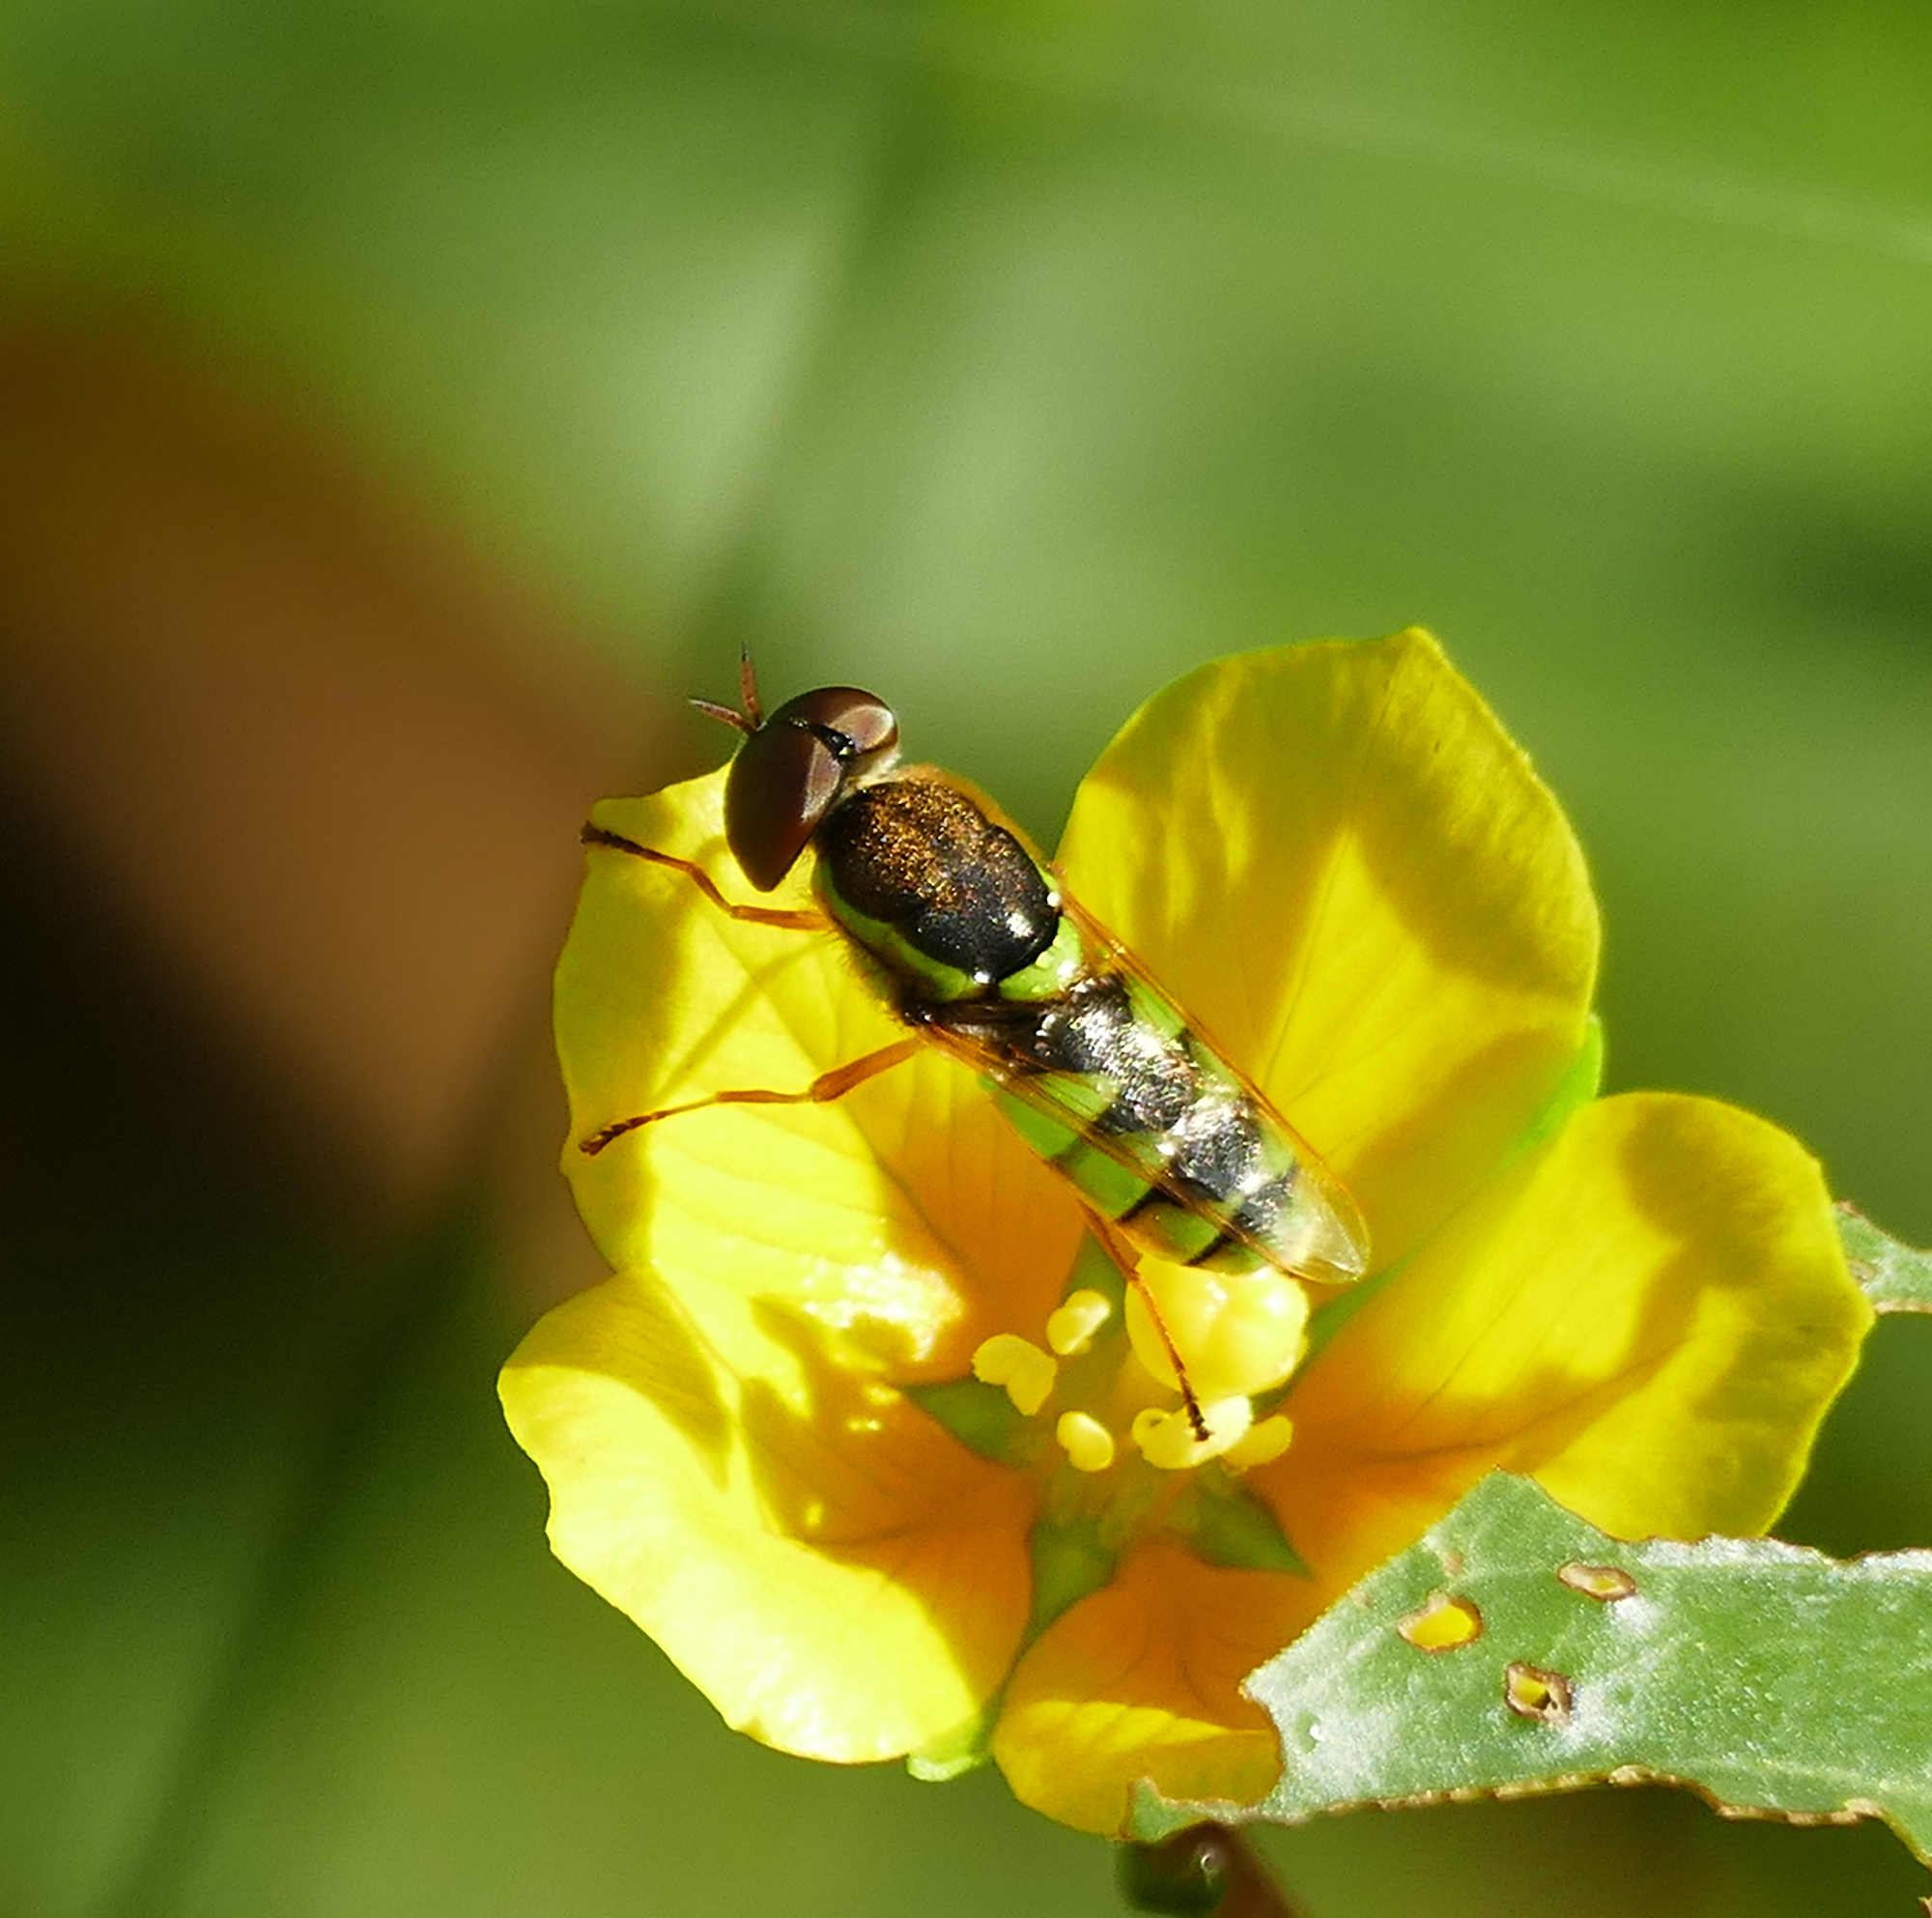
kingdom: Animalia
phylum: Arthropoda
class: Insecta
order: Diptera
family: Stratiomyidae
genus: Odontomyia
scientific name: Odontomyia cincta
